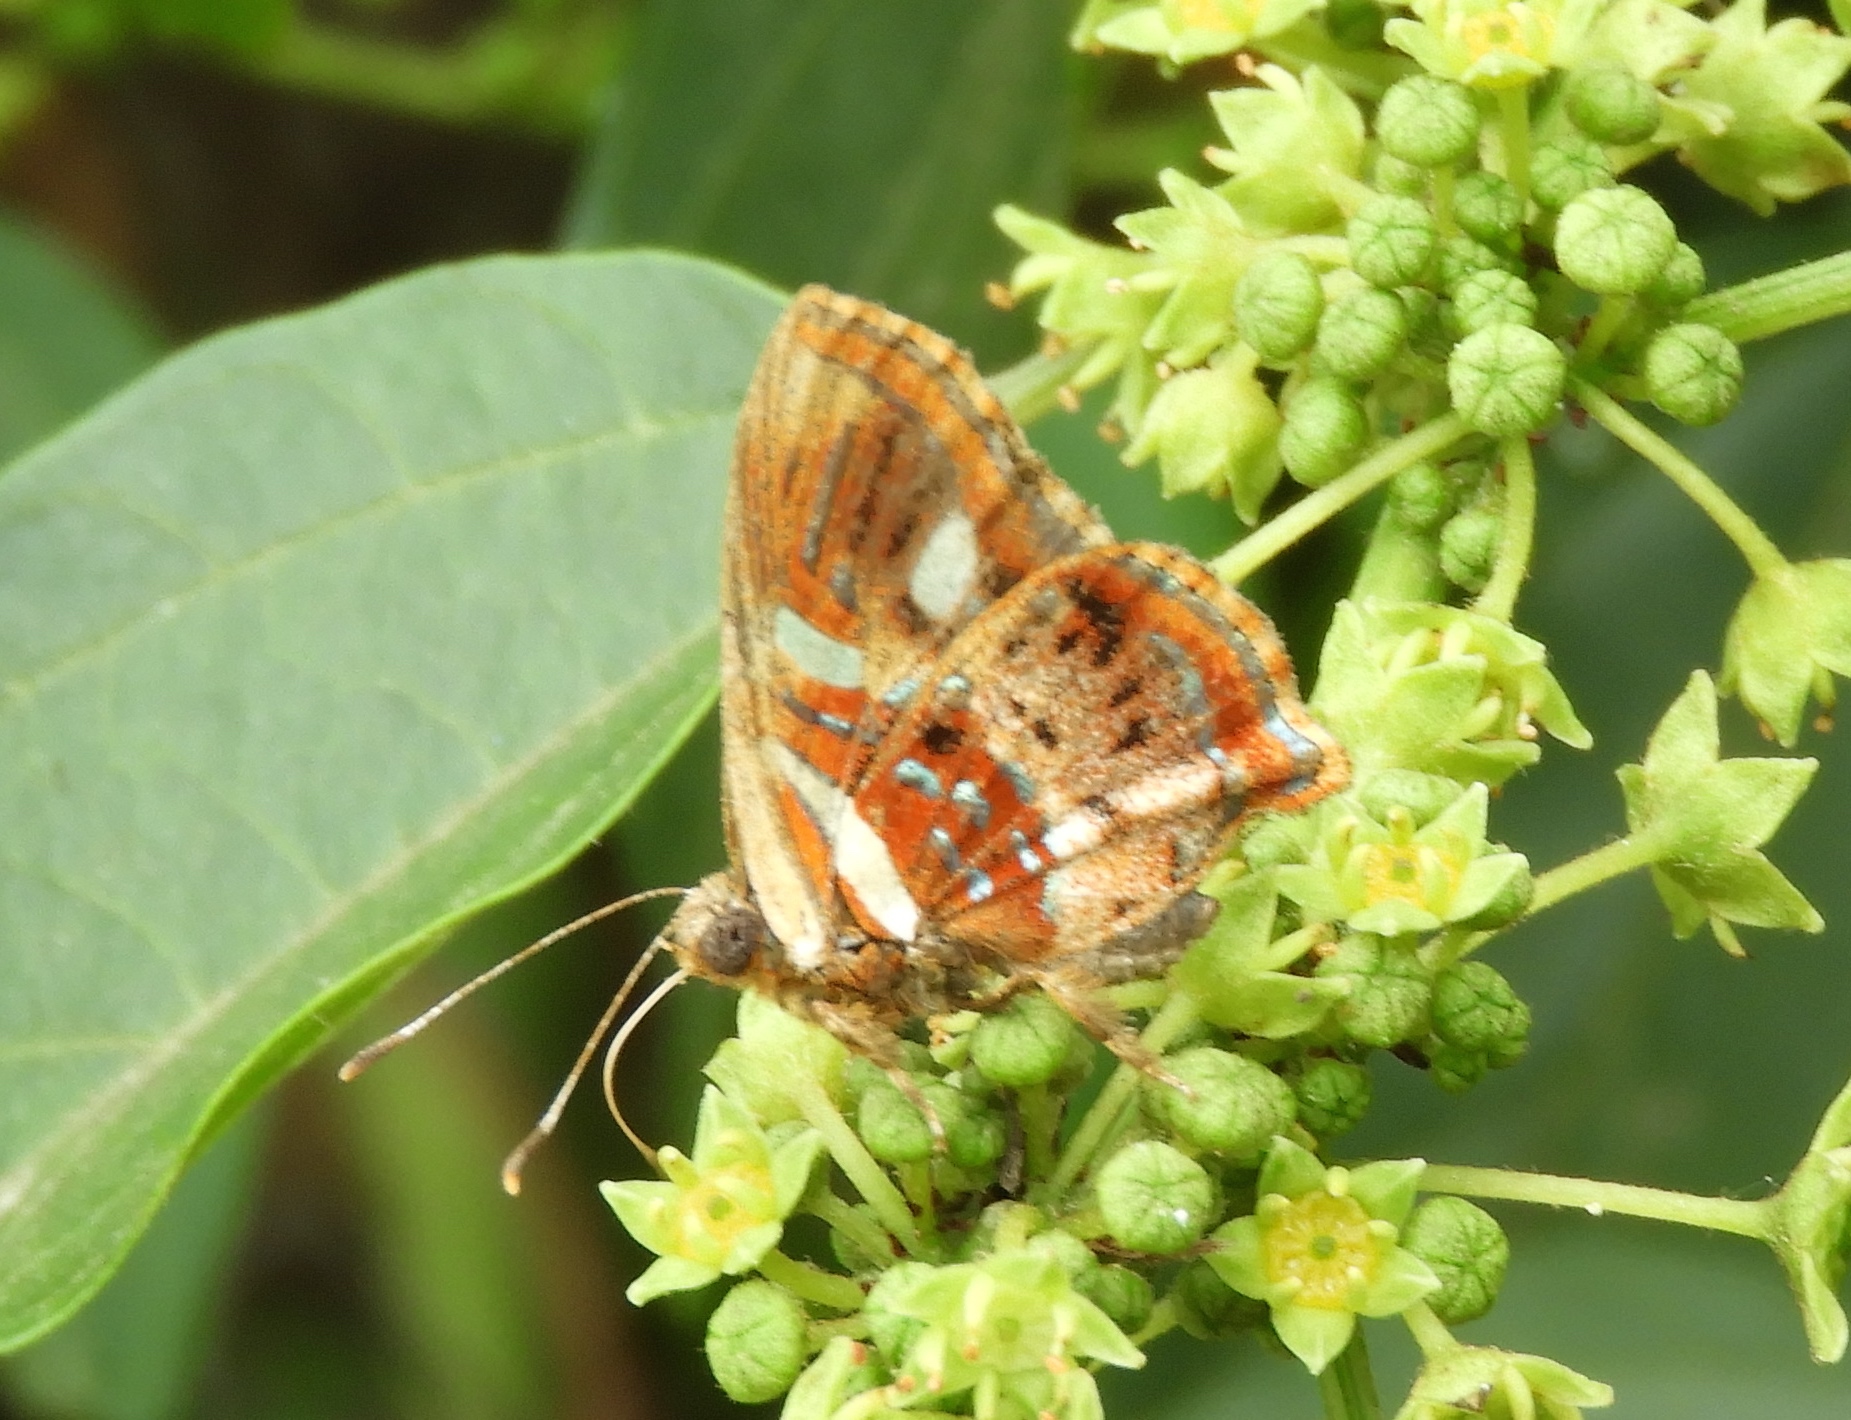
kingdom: Animalia
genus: Anteros
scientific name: Anteros carausius
